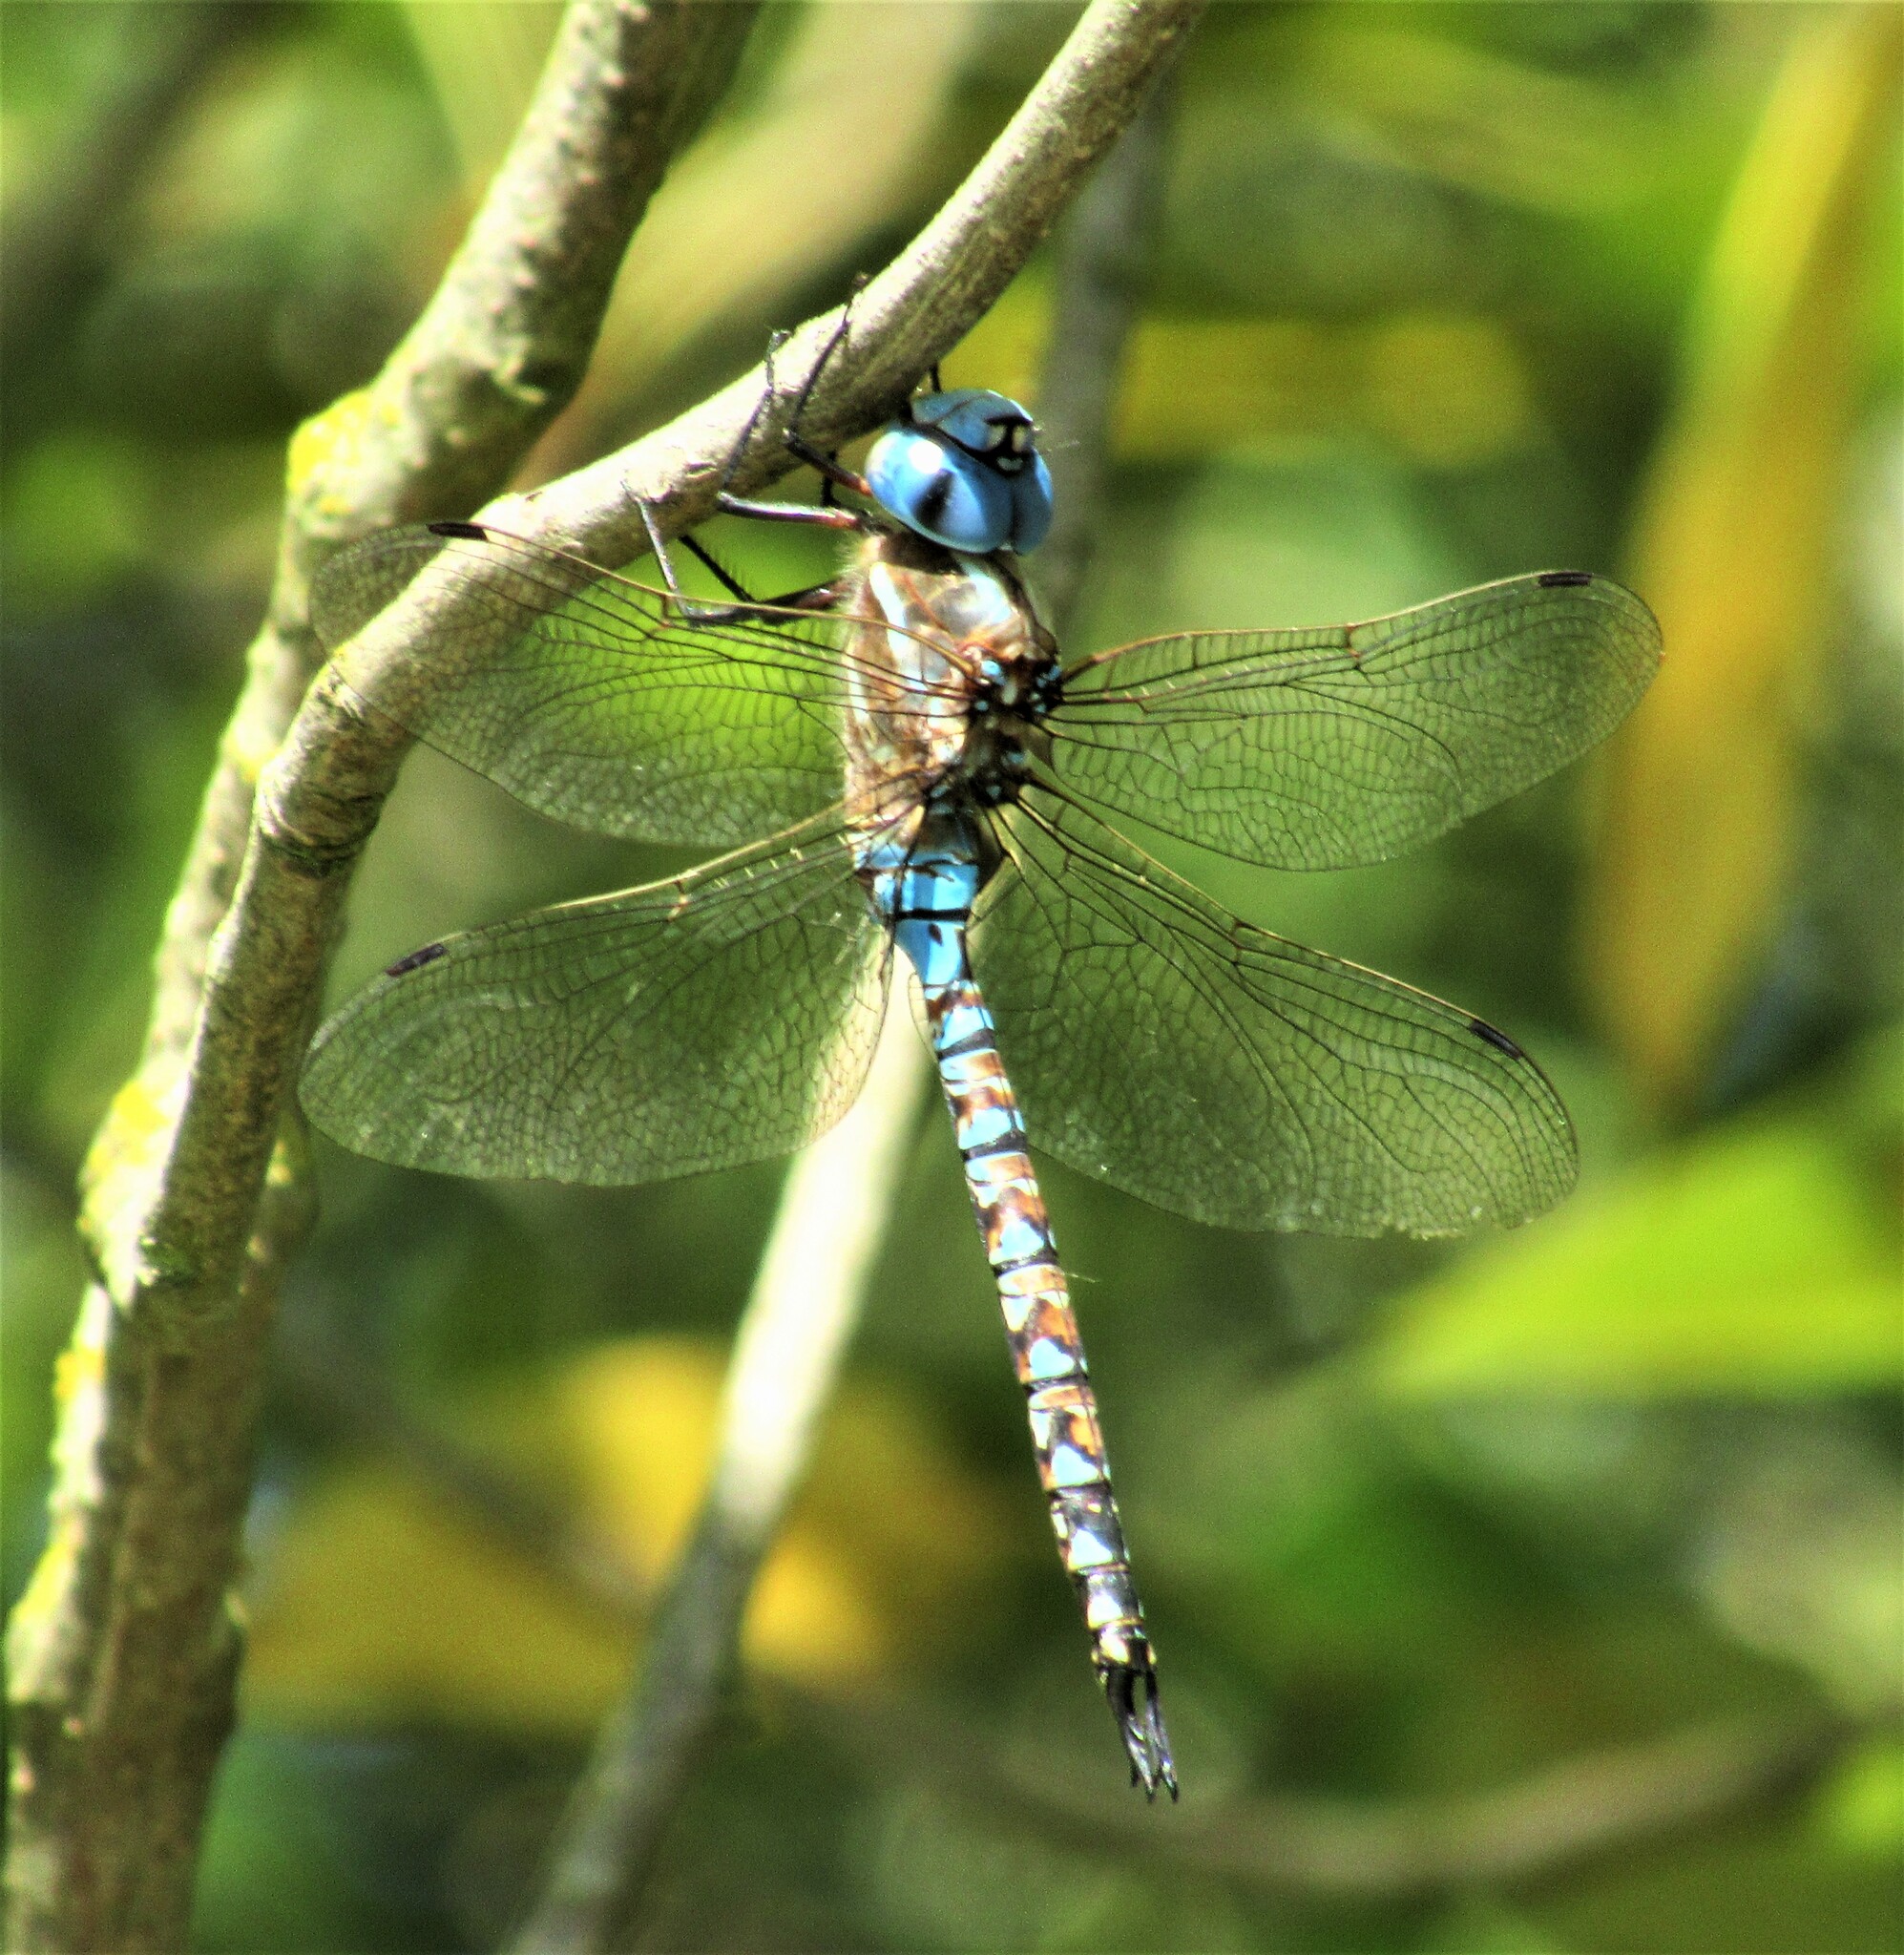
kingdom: Animalia
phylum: Arthropoda
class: Insecta
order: Odonata
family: Aeshnidae
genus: Rhionaeschna
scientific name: Rhionaeschna multicolor
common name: Blue-eyed darner
